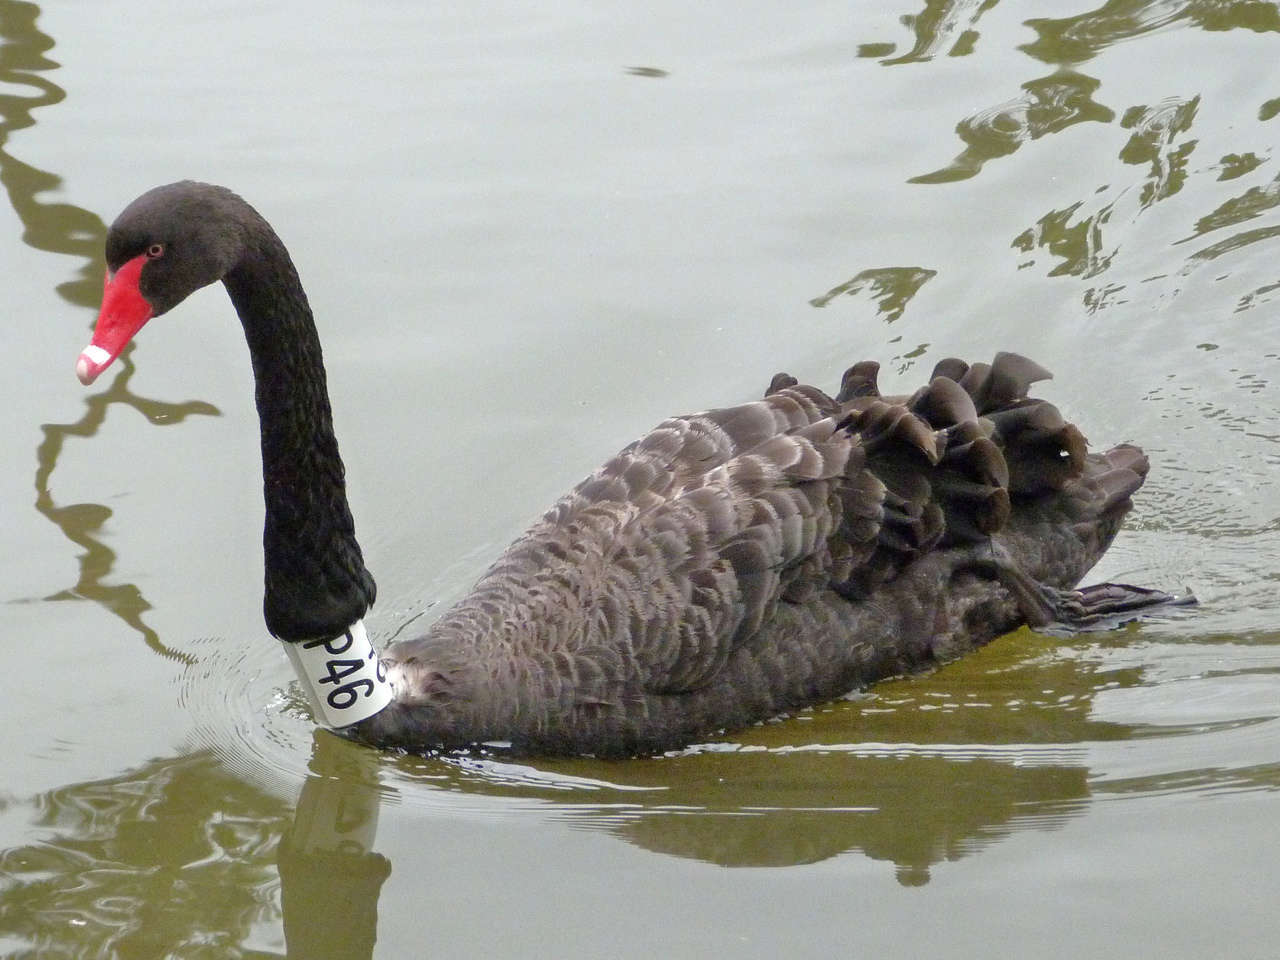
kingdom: Animalia
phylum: Chordata
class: Aves
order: Anseriformes
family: Anatidae
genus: Cygnus
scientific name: Cygnus atratus
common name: Black swan
